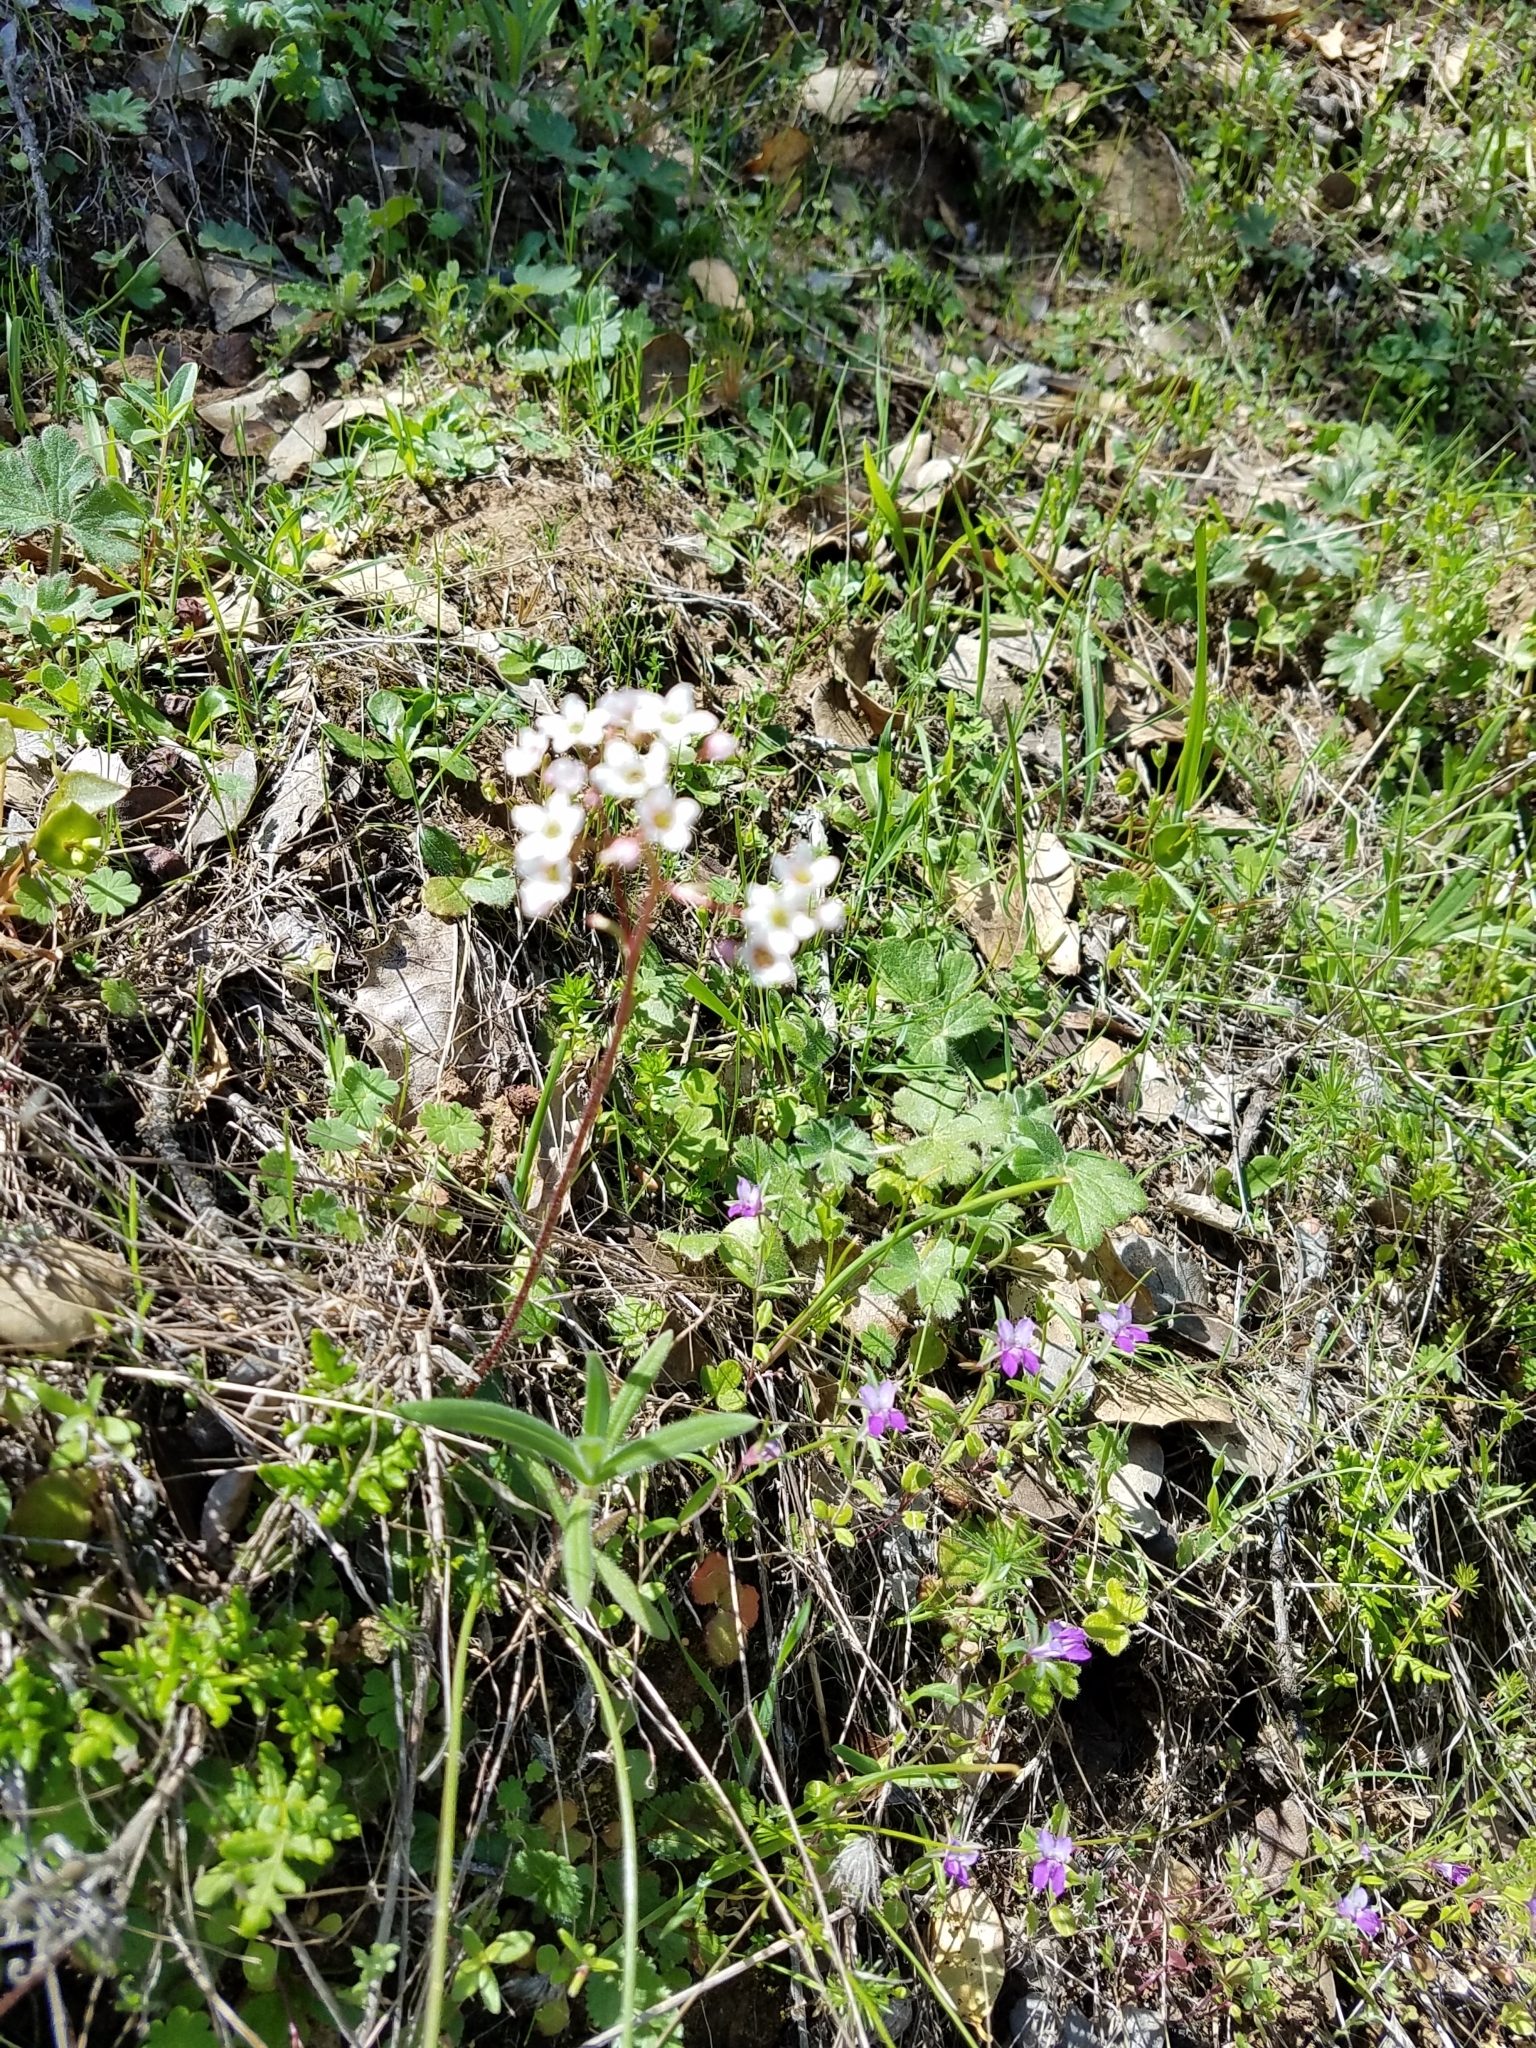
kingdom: Plantae
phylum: Tracheophyta
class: Magnoliopsida
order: Saxifragales
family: Saxifragaceae
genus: Micranthes
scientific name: Micranthes californica
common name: California saxifrage
